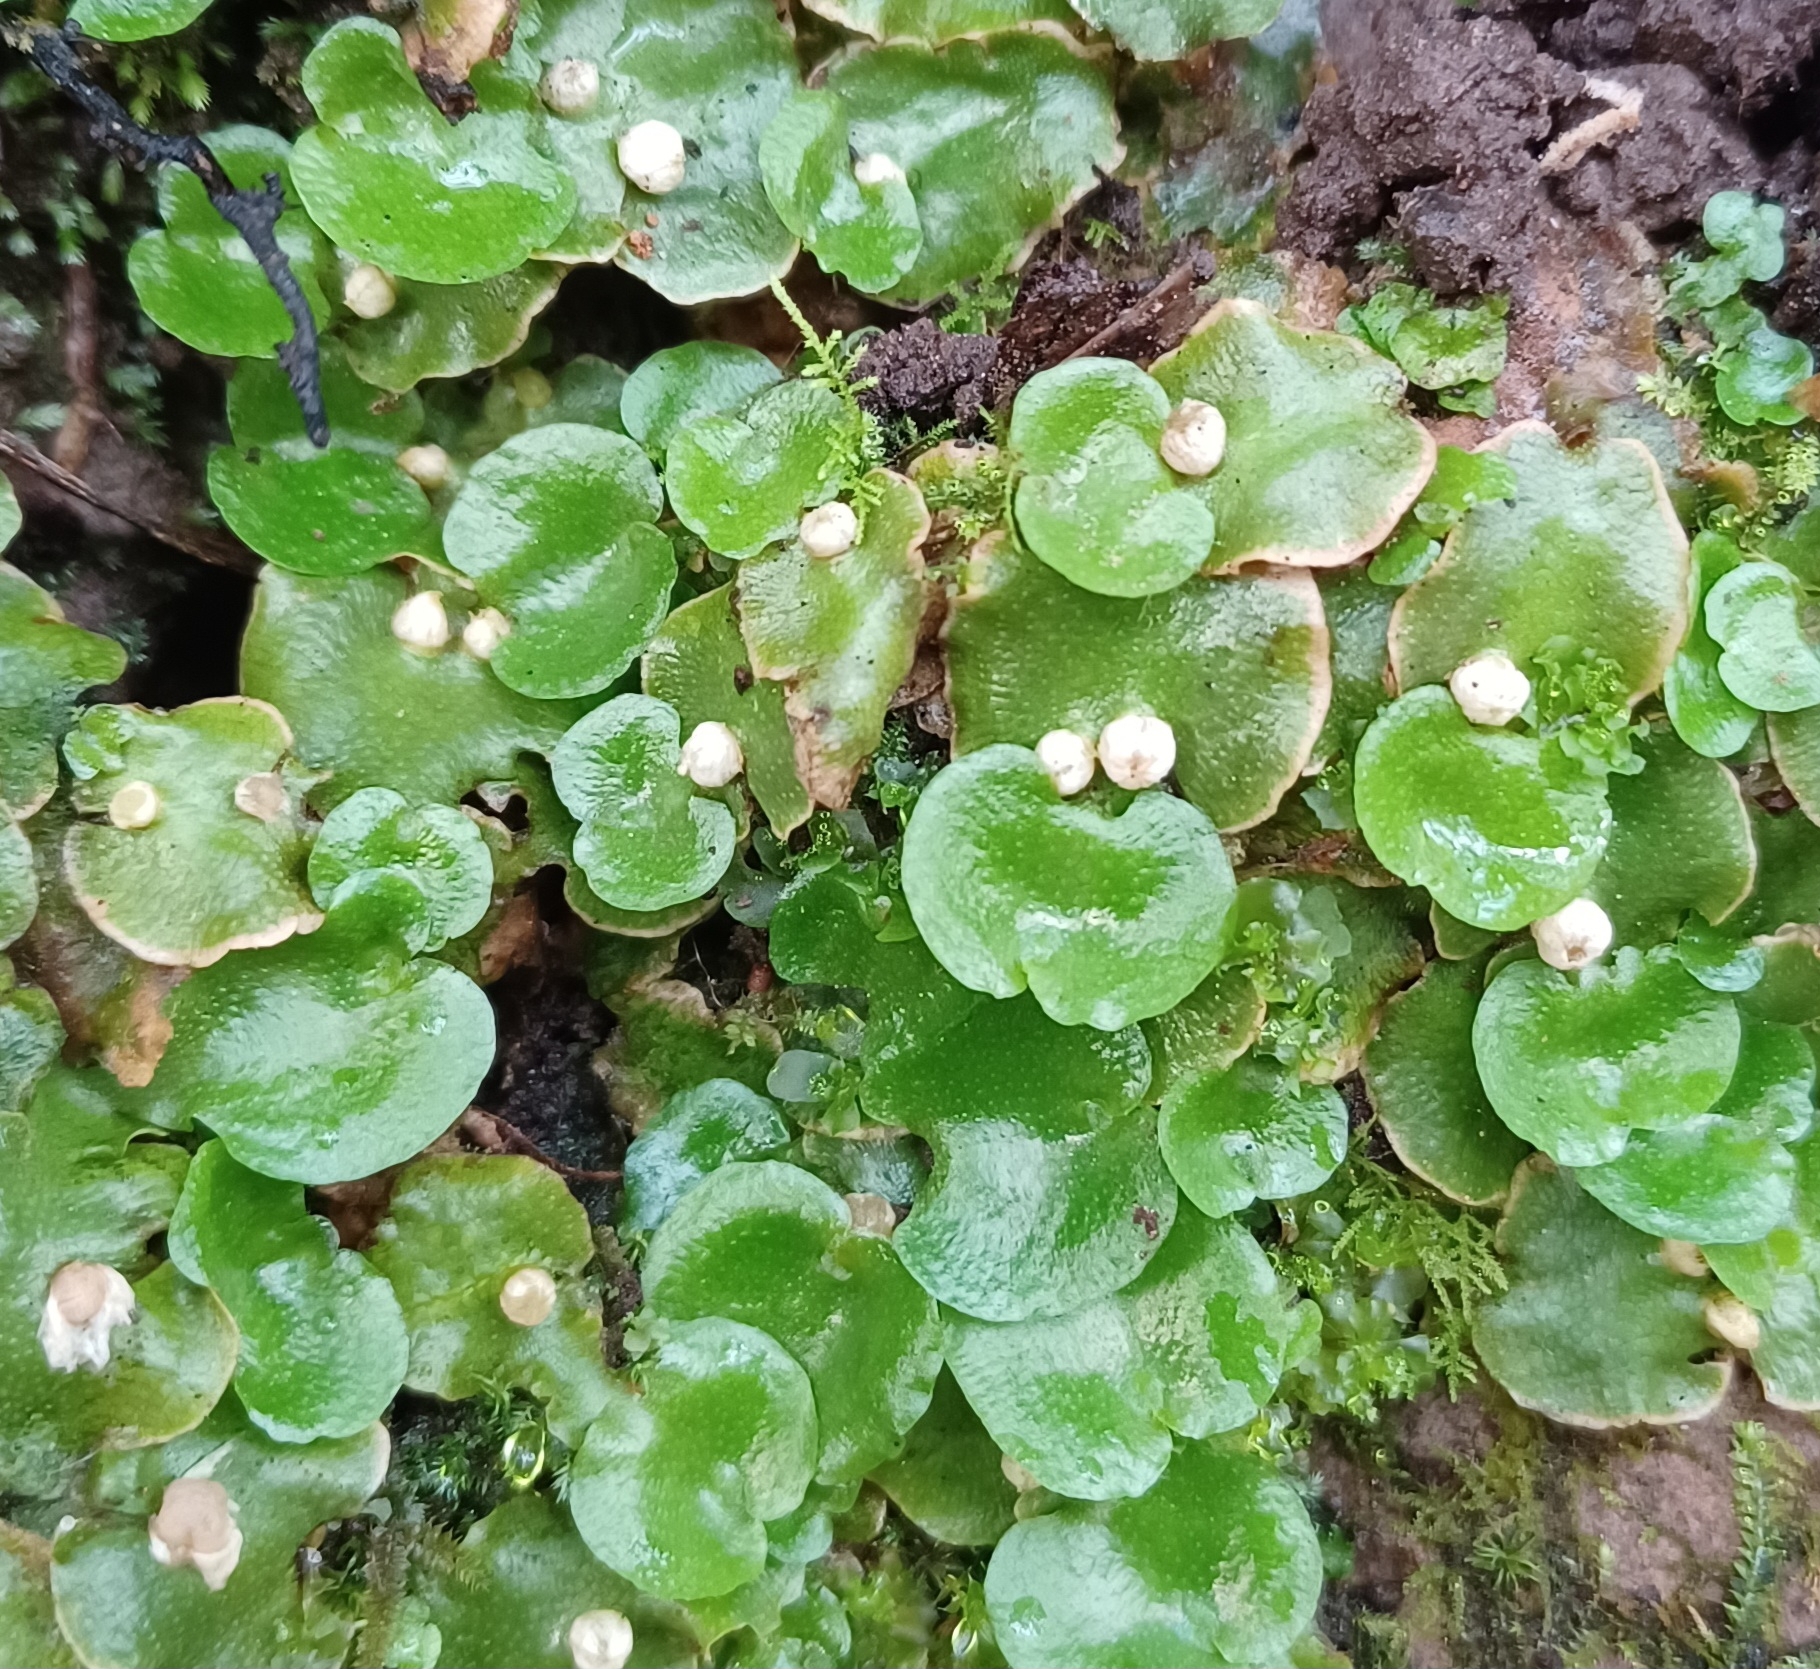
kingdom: Plantae
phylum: Marchantiophyta
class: Marchantiopsida
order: Lunulariales
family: Lunulariaceae
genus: Lunularia
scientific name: Lunularia cruciata
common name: Crescent-cup liverwort
